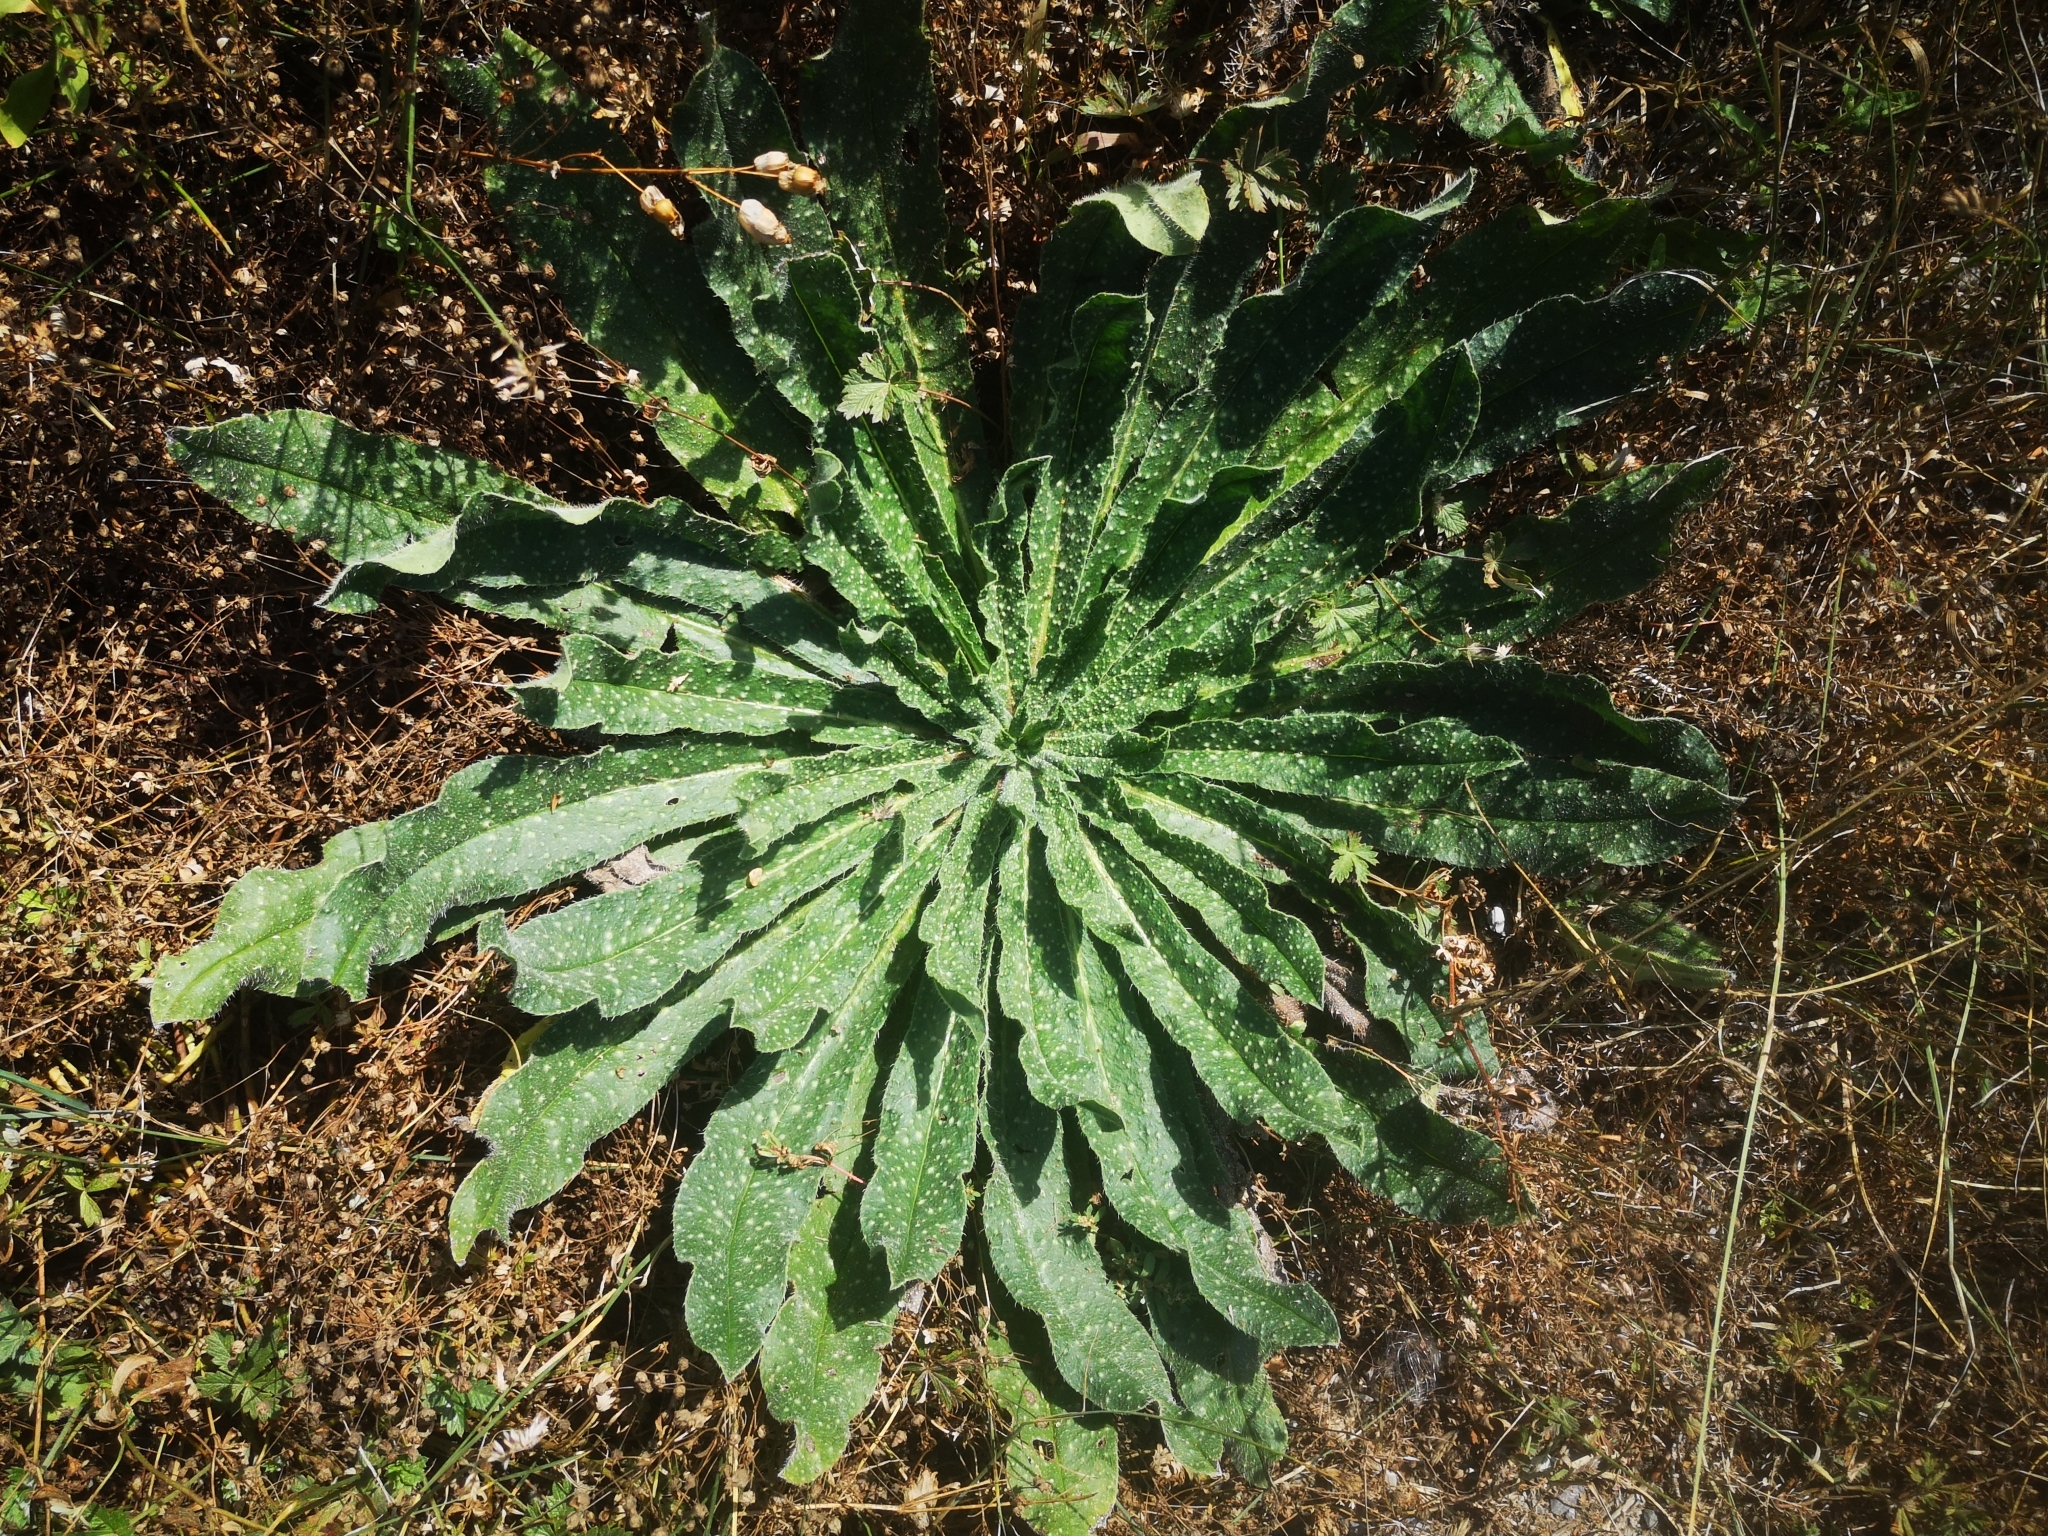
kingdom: Plantae
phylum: Tracheophyta
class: Magnoliopsida
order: Boraginales
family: Boraginaceae
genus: Echium
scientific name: Echium vulgare
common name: Common viper's bugloss
